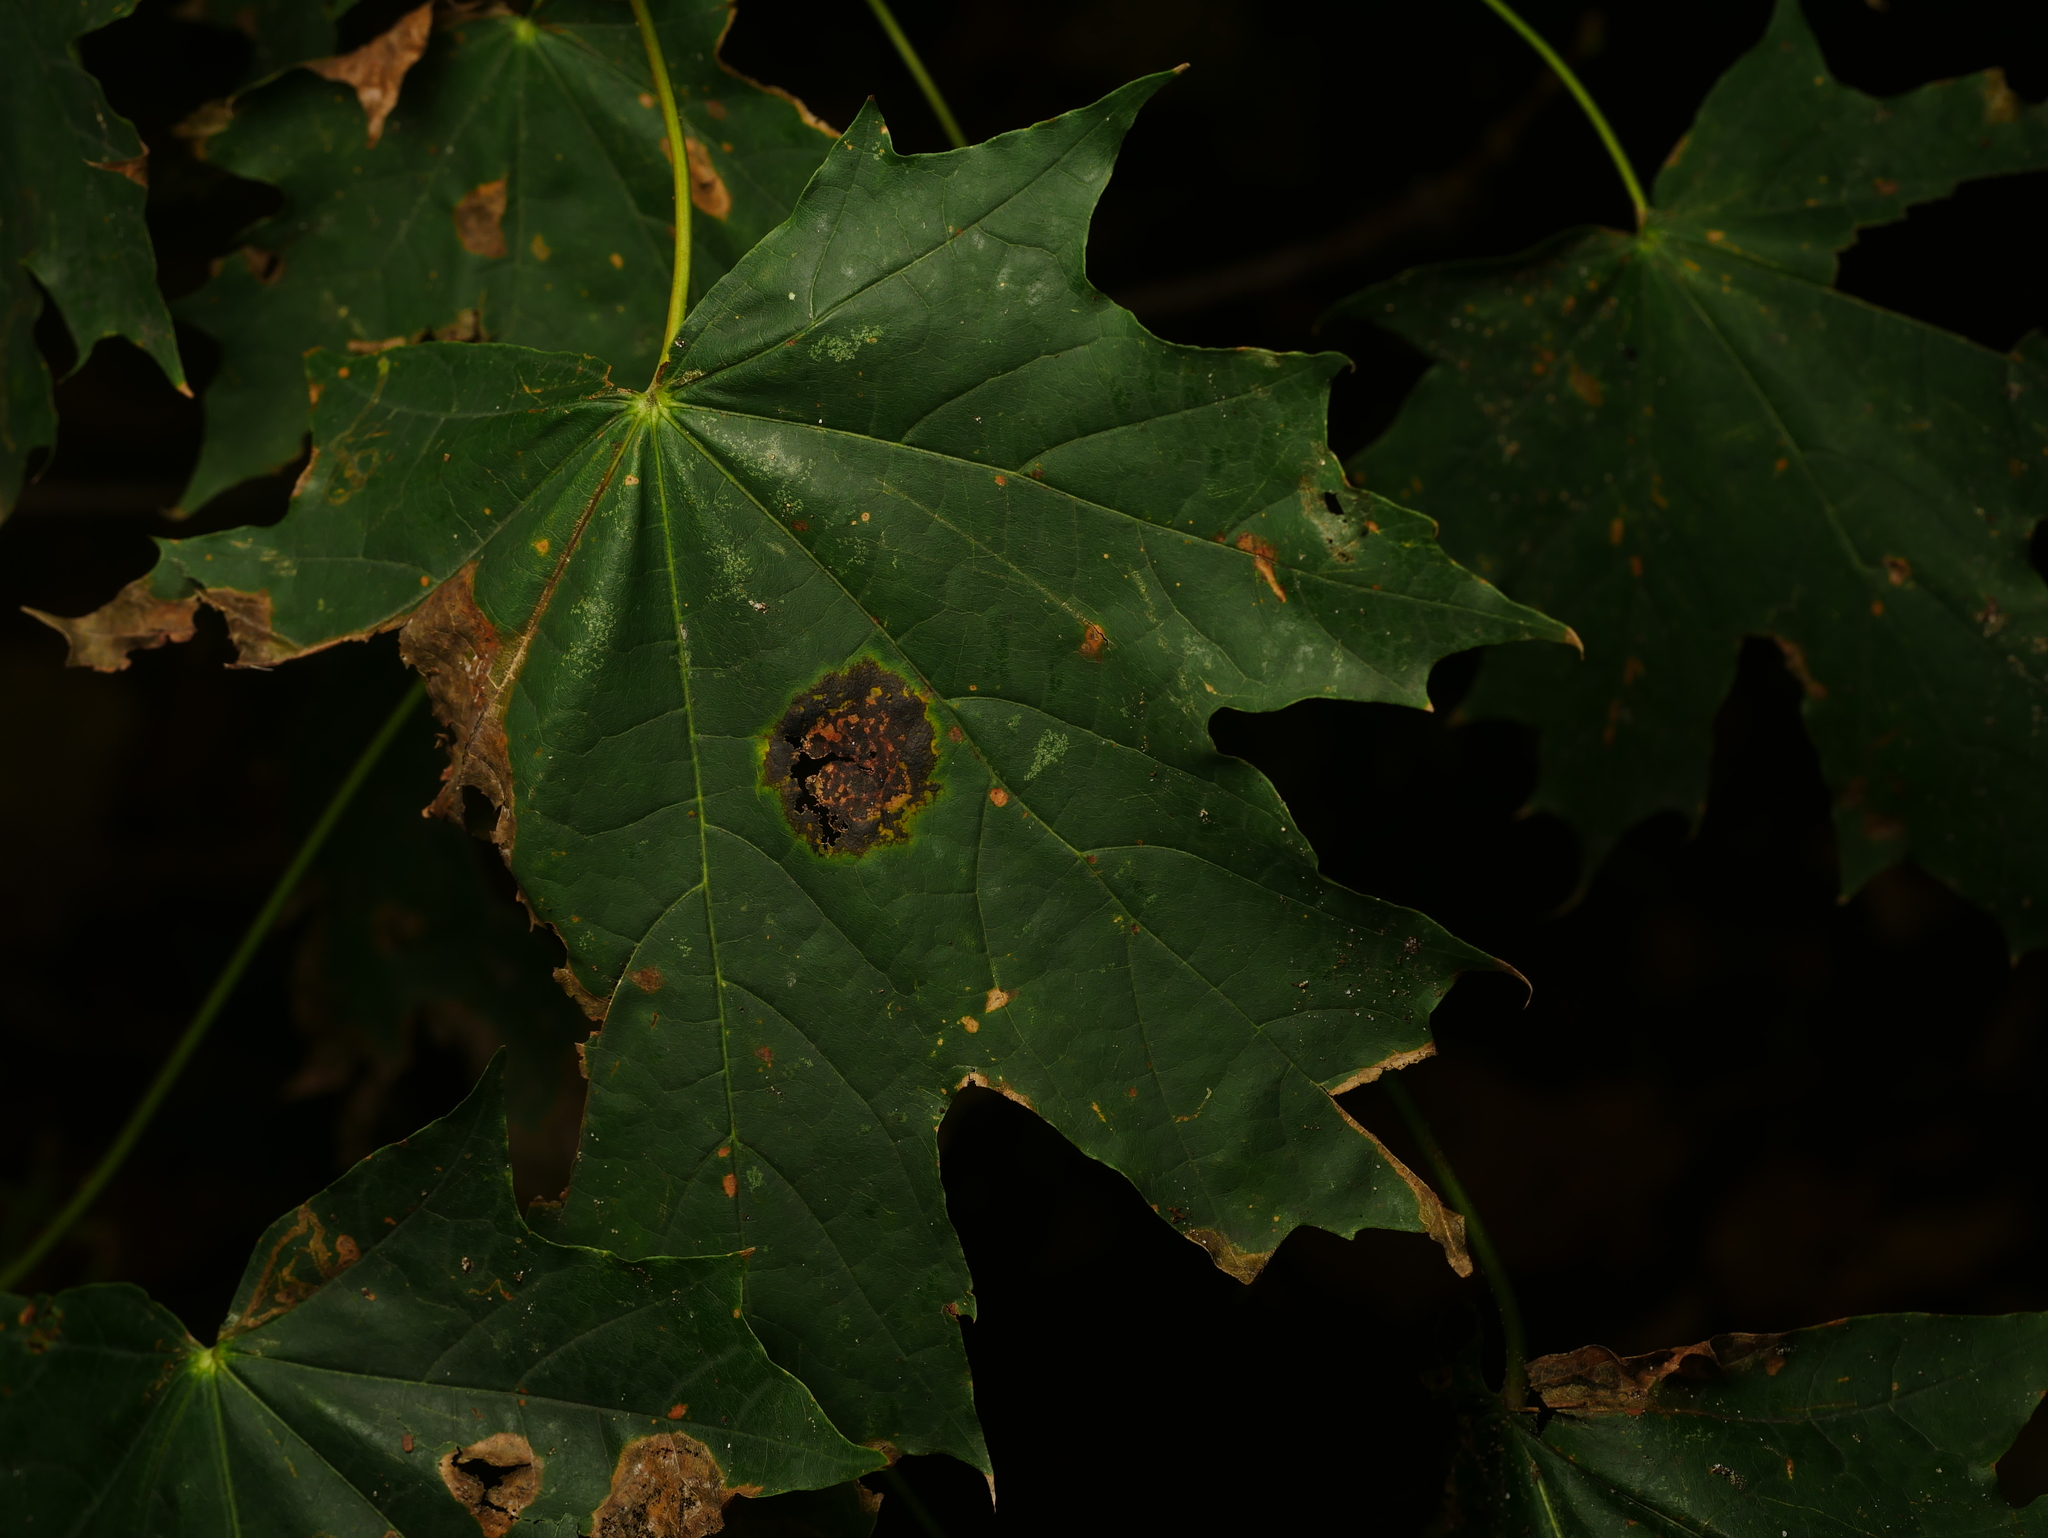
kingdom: Plantae
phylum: Tracheophyta
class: Magnoliopsida
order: Sapindales
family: Sapindaceae
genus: Acer
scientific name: Acer platanoides
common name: Norway maple
